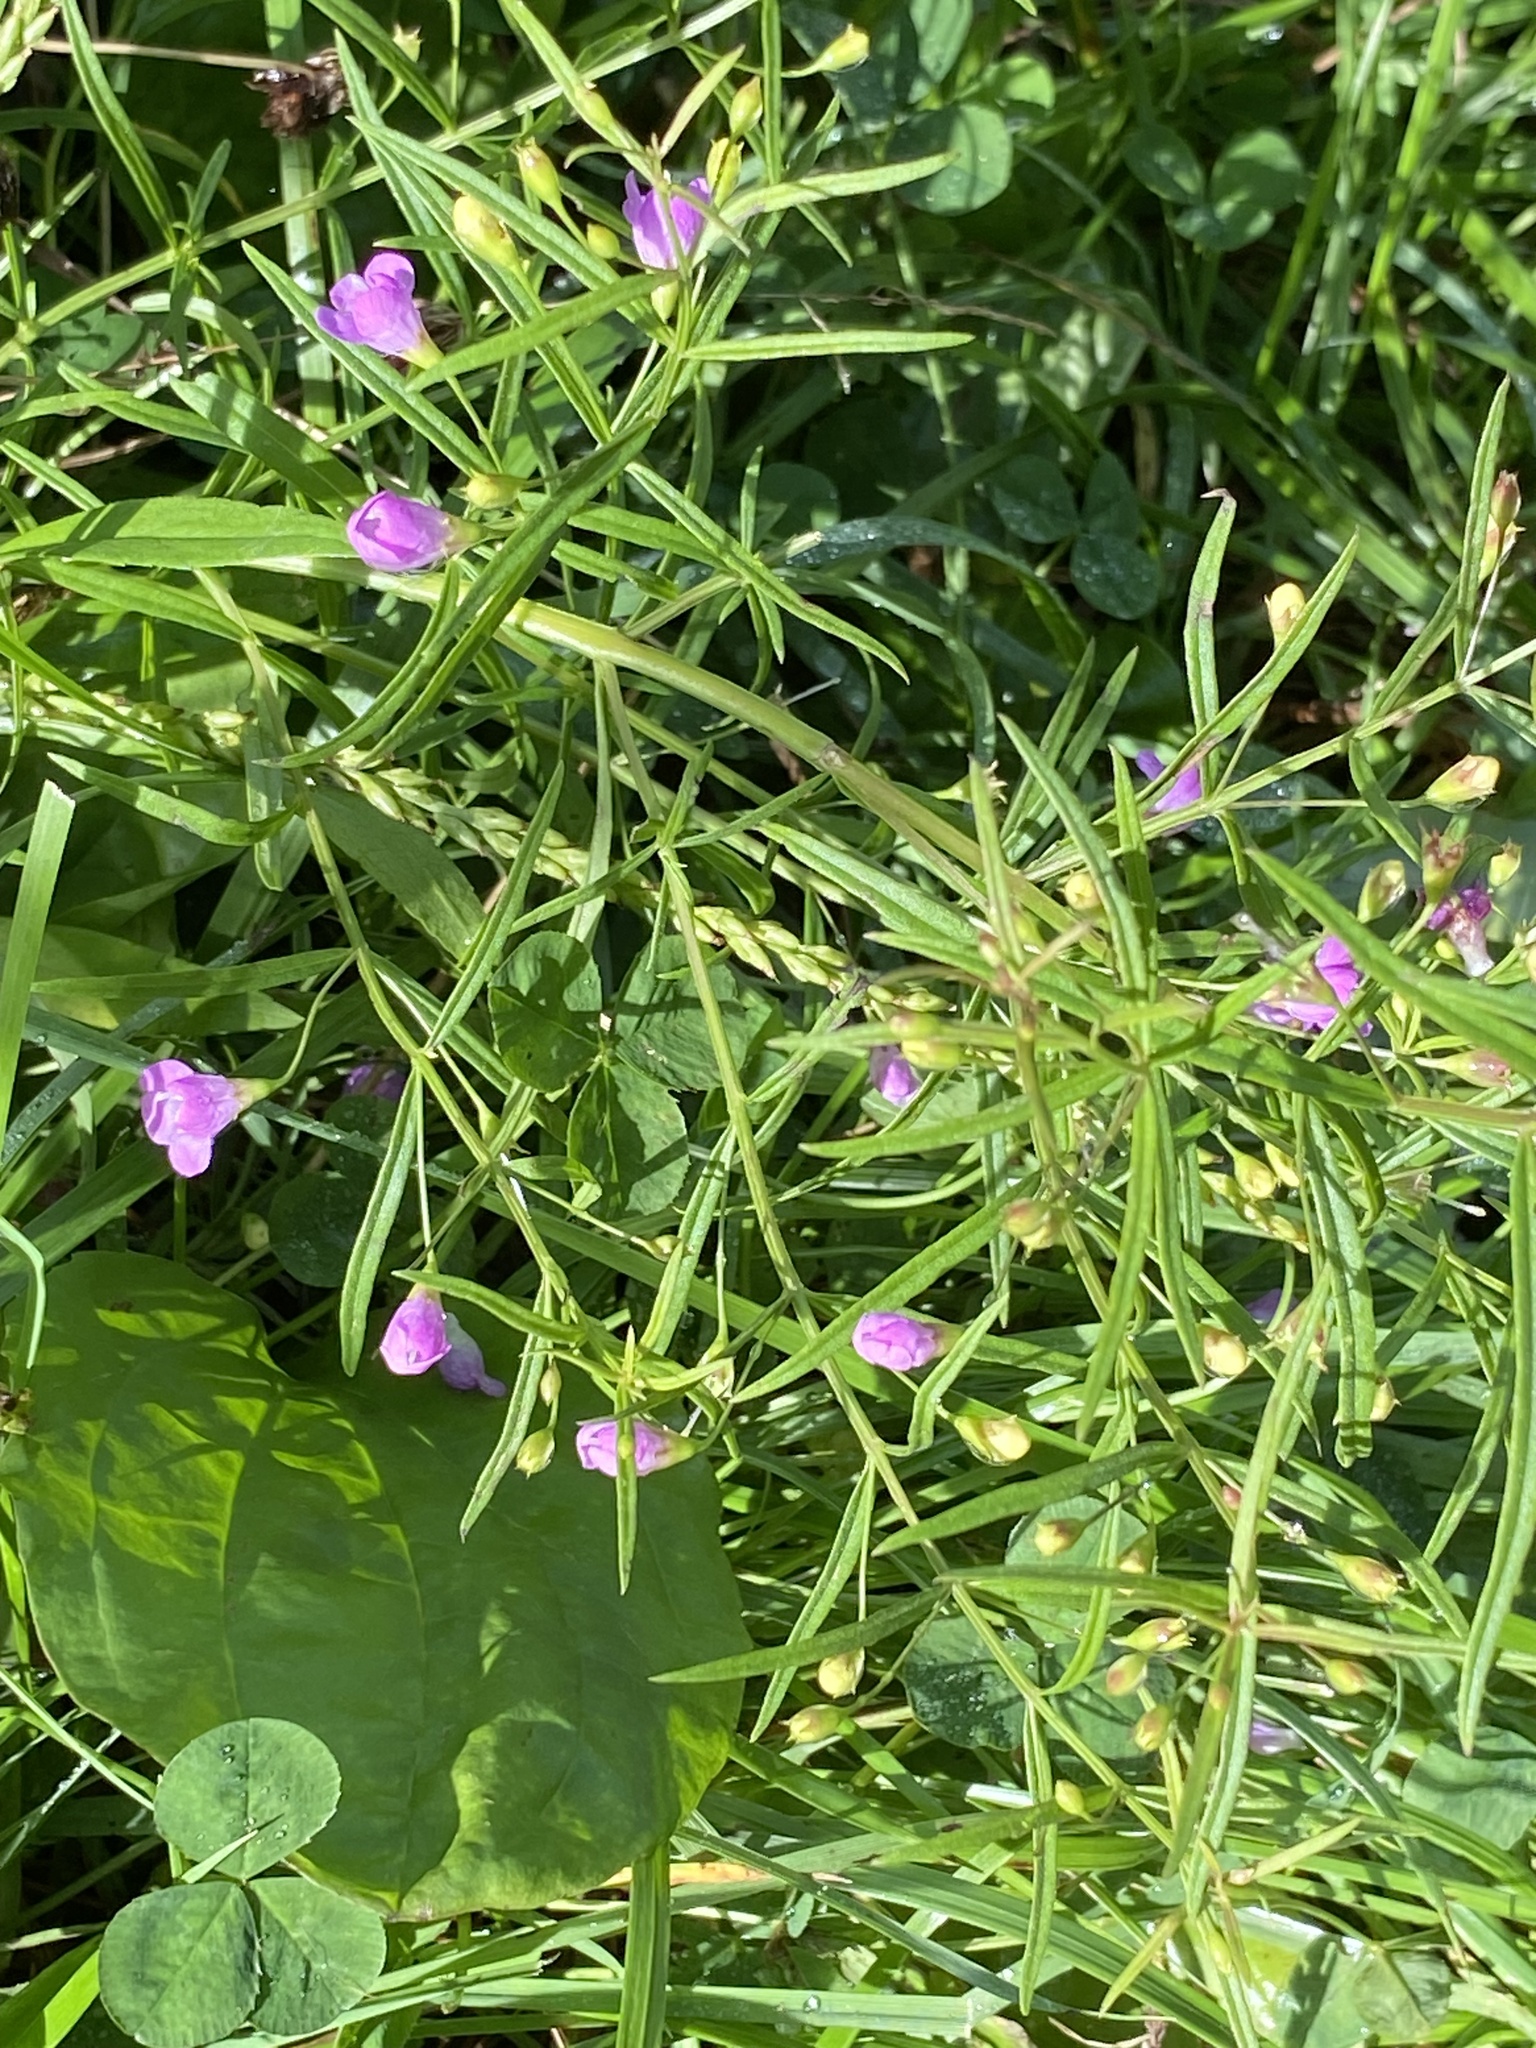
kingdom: Plantae
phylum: Tracheophyta
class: Magnoliopsida
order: Lamiales
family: Orobanchaceae
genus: Agalinis
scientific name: Agalinis tenuifolia
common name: Slender agalinis
